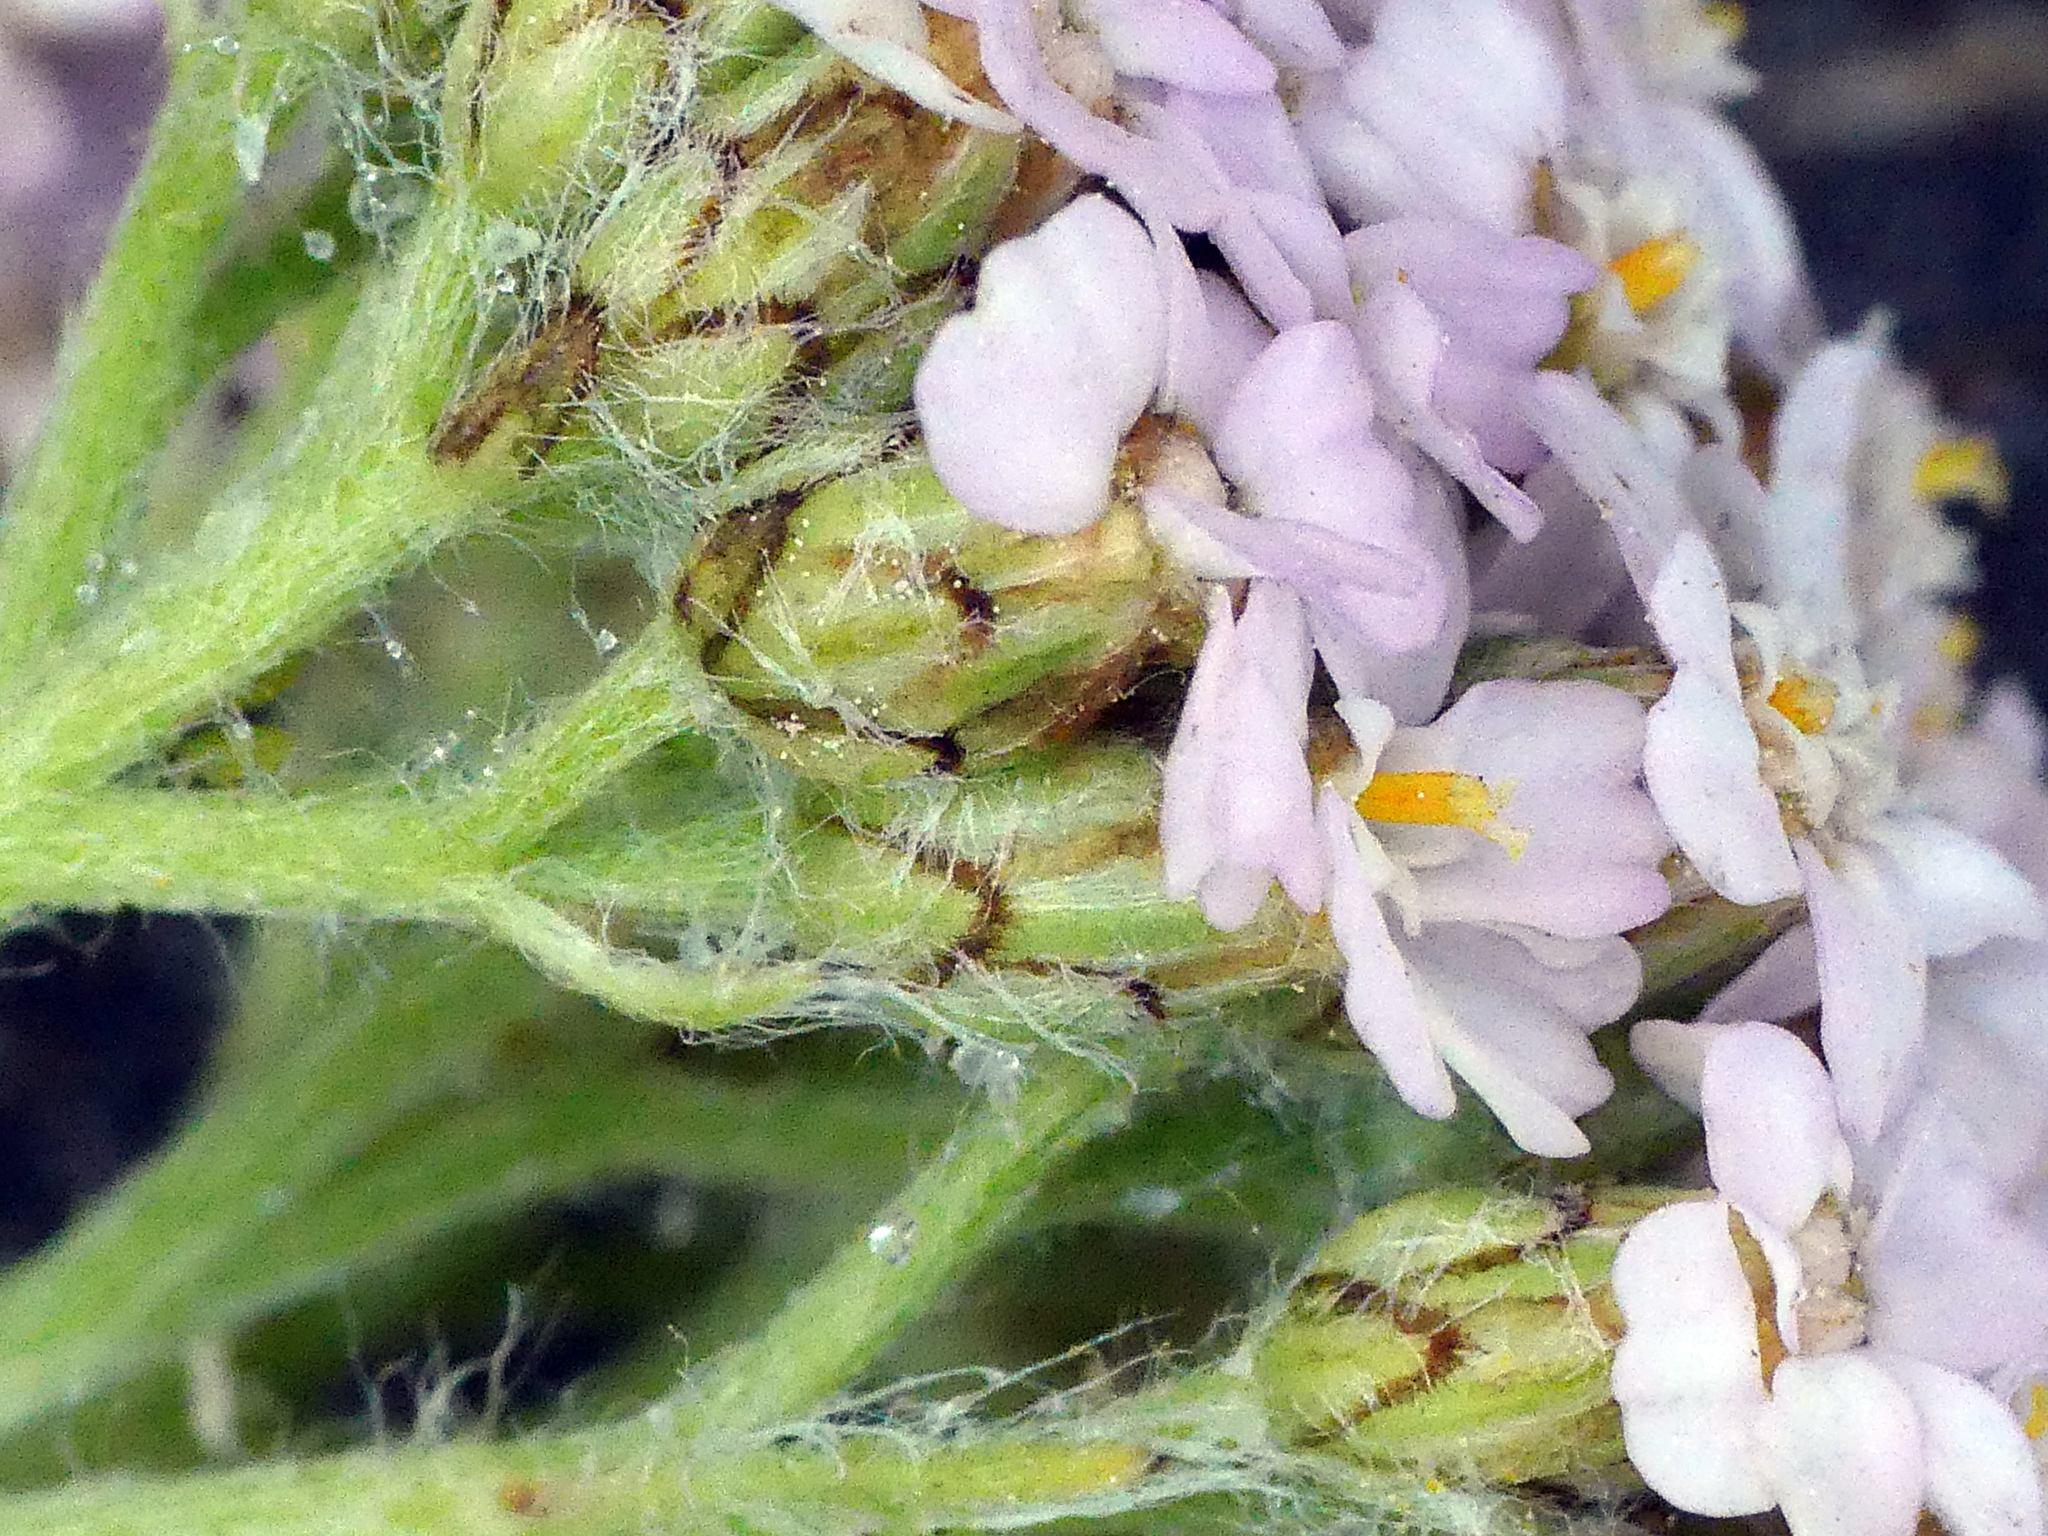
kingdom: Plantae
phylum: Tracheophyta
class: Magnoliopsida
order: Asterales
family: Asteraceae
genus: Achillea
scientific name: Achillea millefolium
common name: Yarrow
